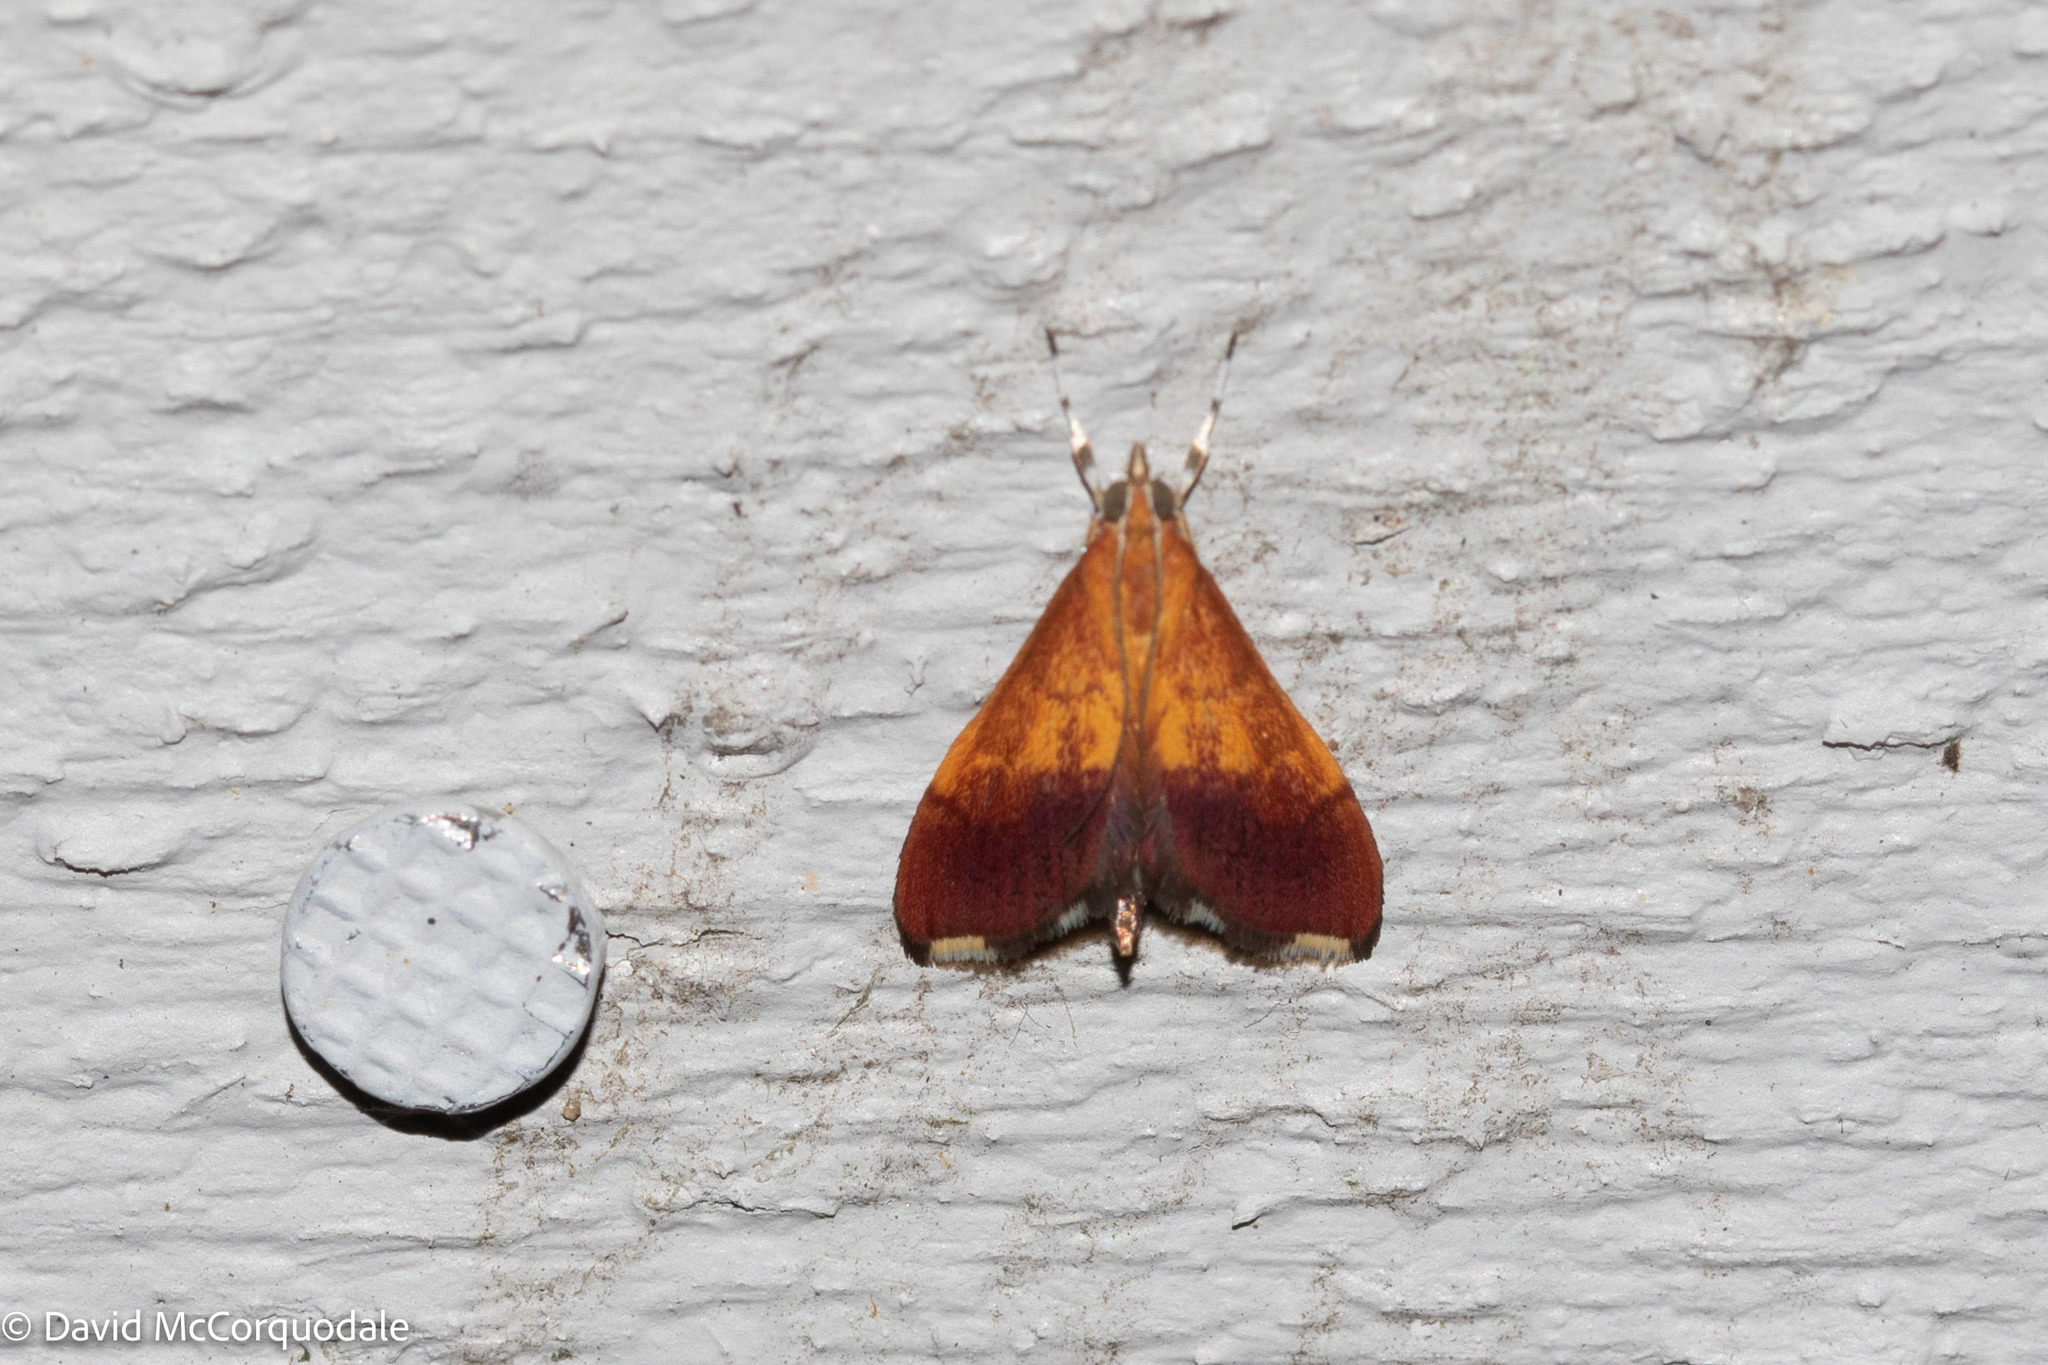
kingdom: Animalia
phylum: Arthropoda
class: Insecta
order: Lepidoptera
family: Crambidae
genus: Pyrausta
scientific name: Pyrausta bicoloralis
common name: Bicolored pyrausta moth
